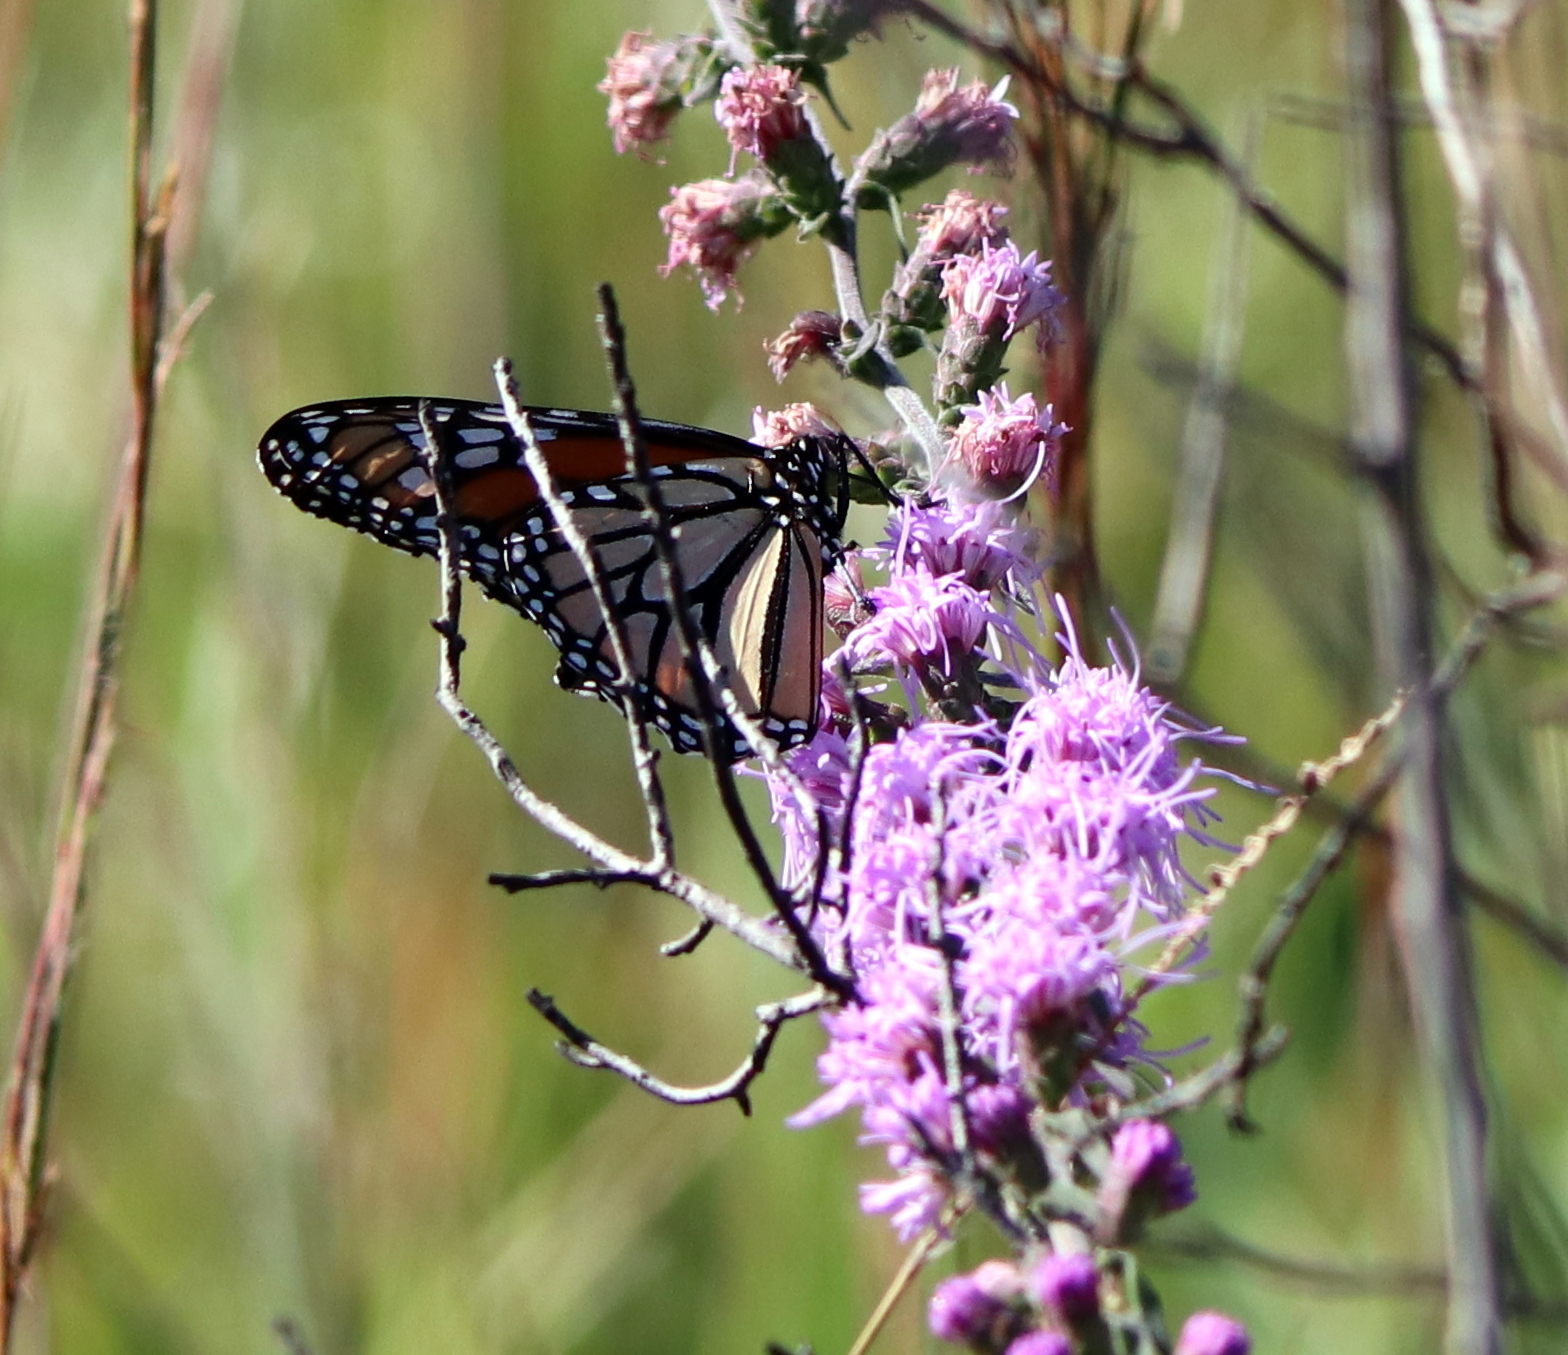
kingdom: Animalia
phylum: Arthropoda
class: Insecta
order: Lepidoptera
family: Nymphalidae
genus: Danaus
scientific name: Danaus plexippus
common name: Monarch
